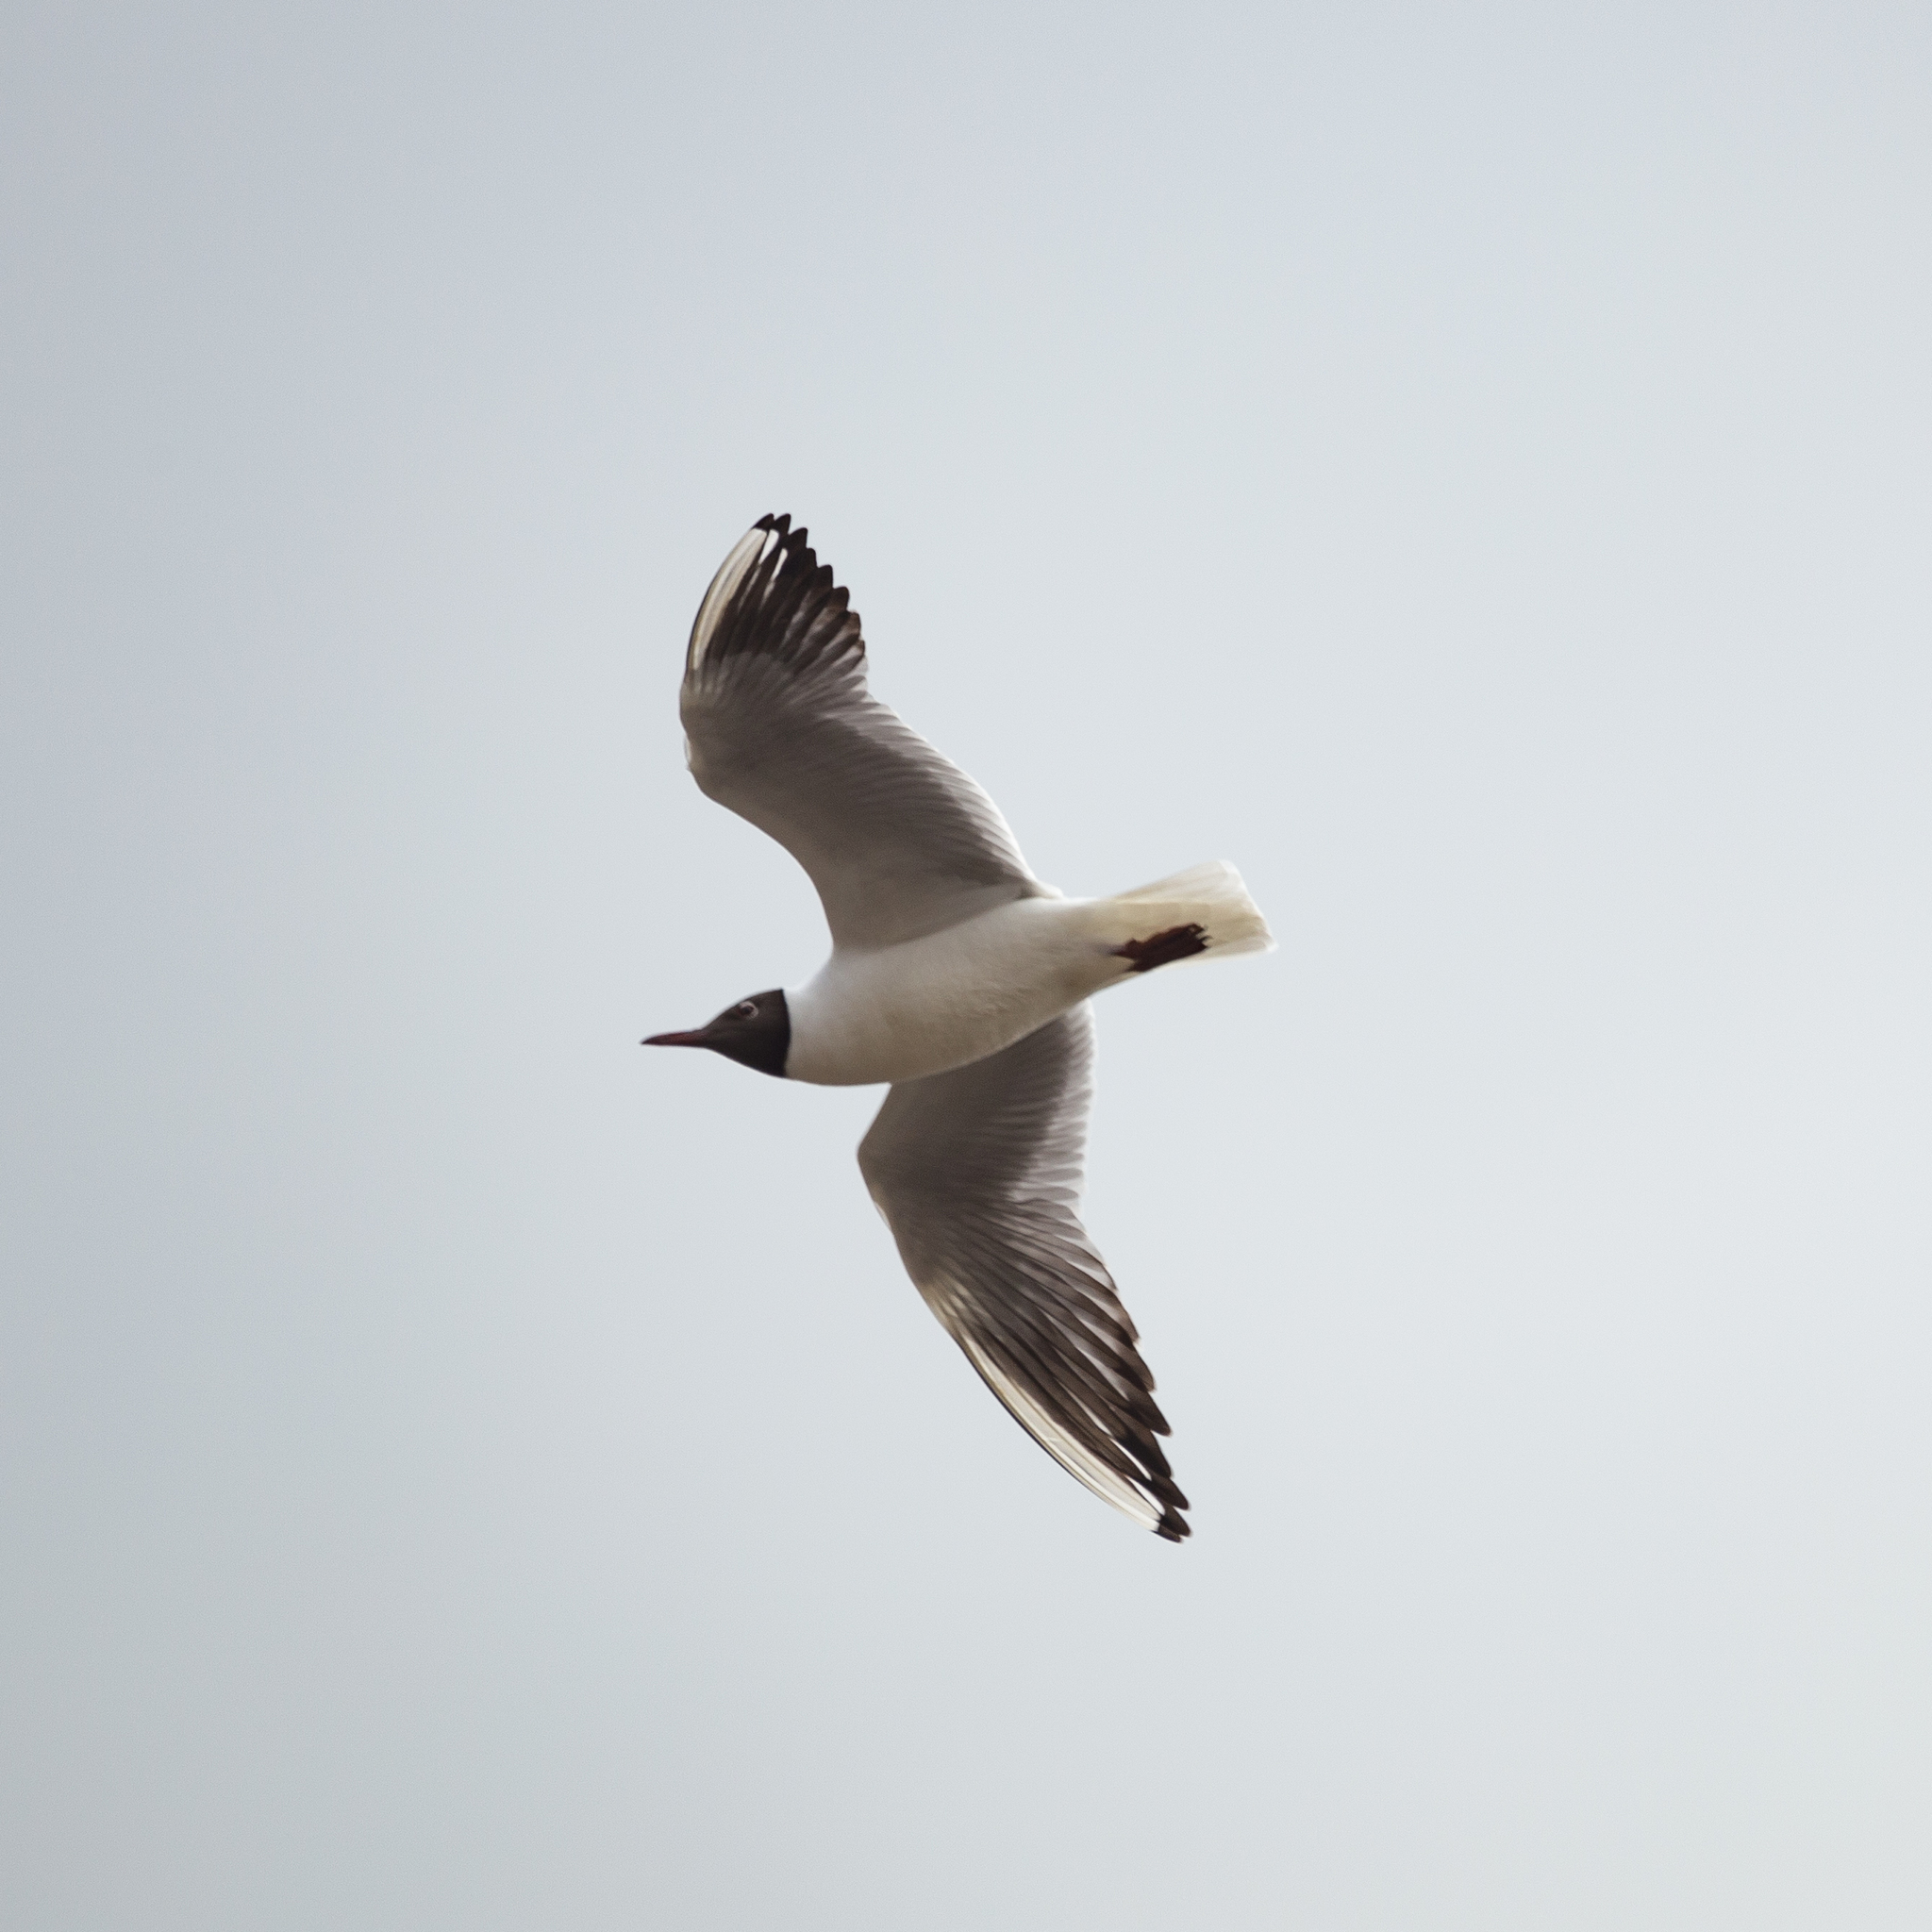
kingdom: Animalia
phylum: Chordata
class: Aves
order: Charadriiformes
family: Laridae
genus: Chroicocephalus
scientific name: Chroicocephalus ridibundus
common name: Black-headed gull
